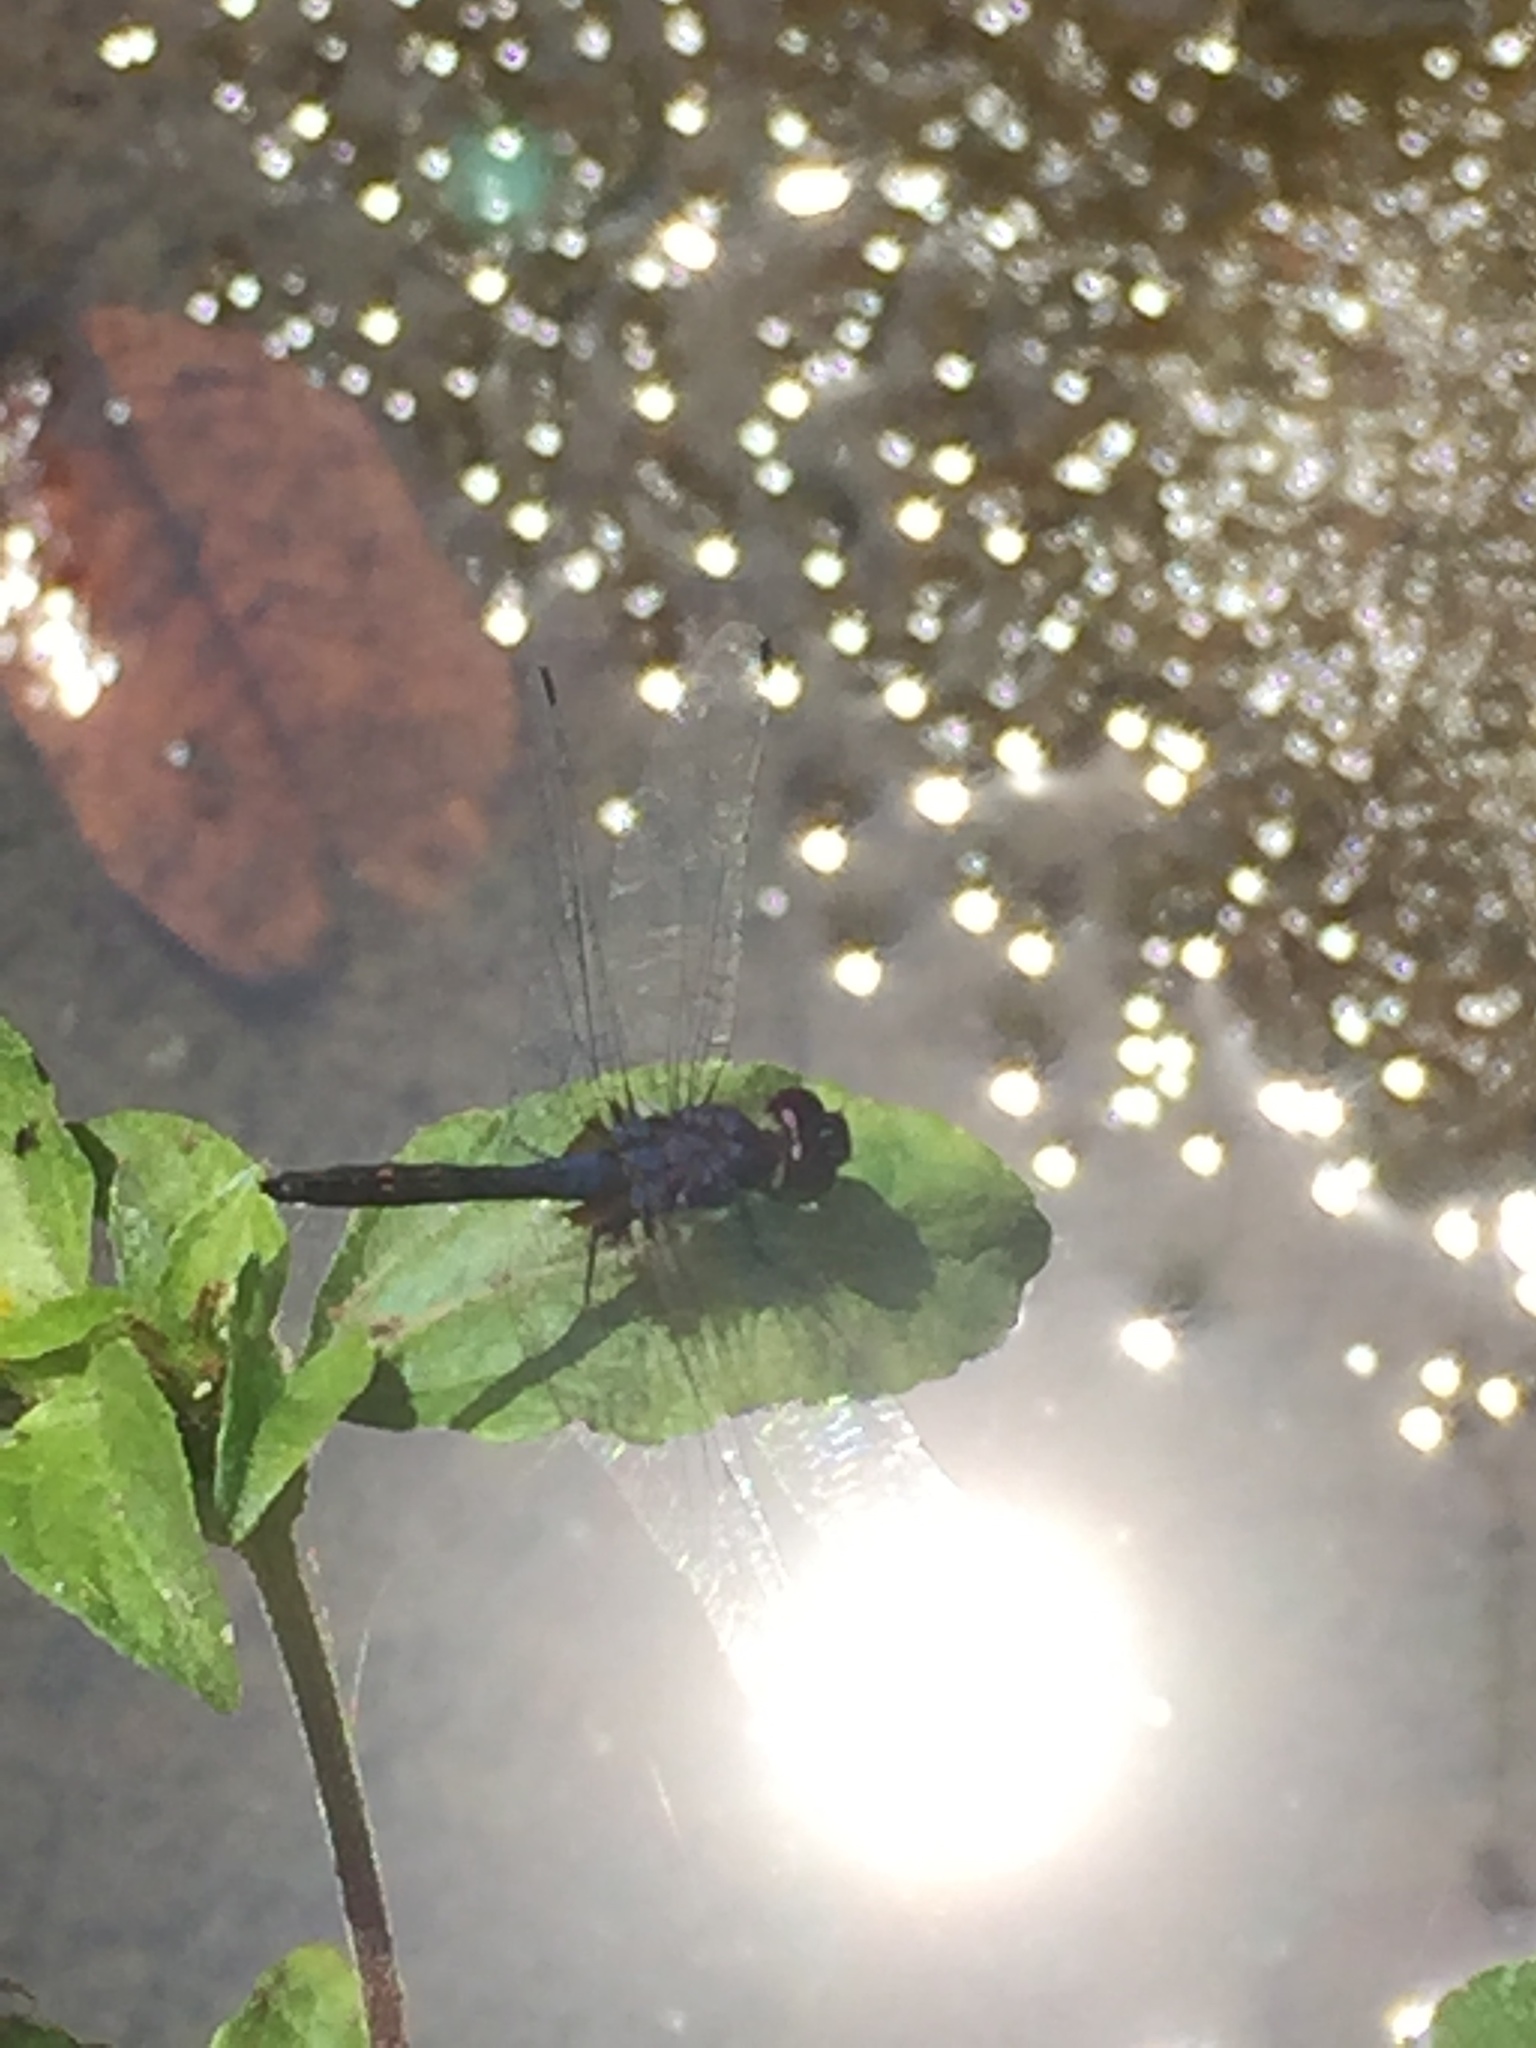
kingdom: Animalia
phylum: Arthropoda
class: Insecta
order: Odonata
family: Libellulidae
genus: Trithemis
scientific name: Trithemis festiva
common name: Indigo dropwing
